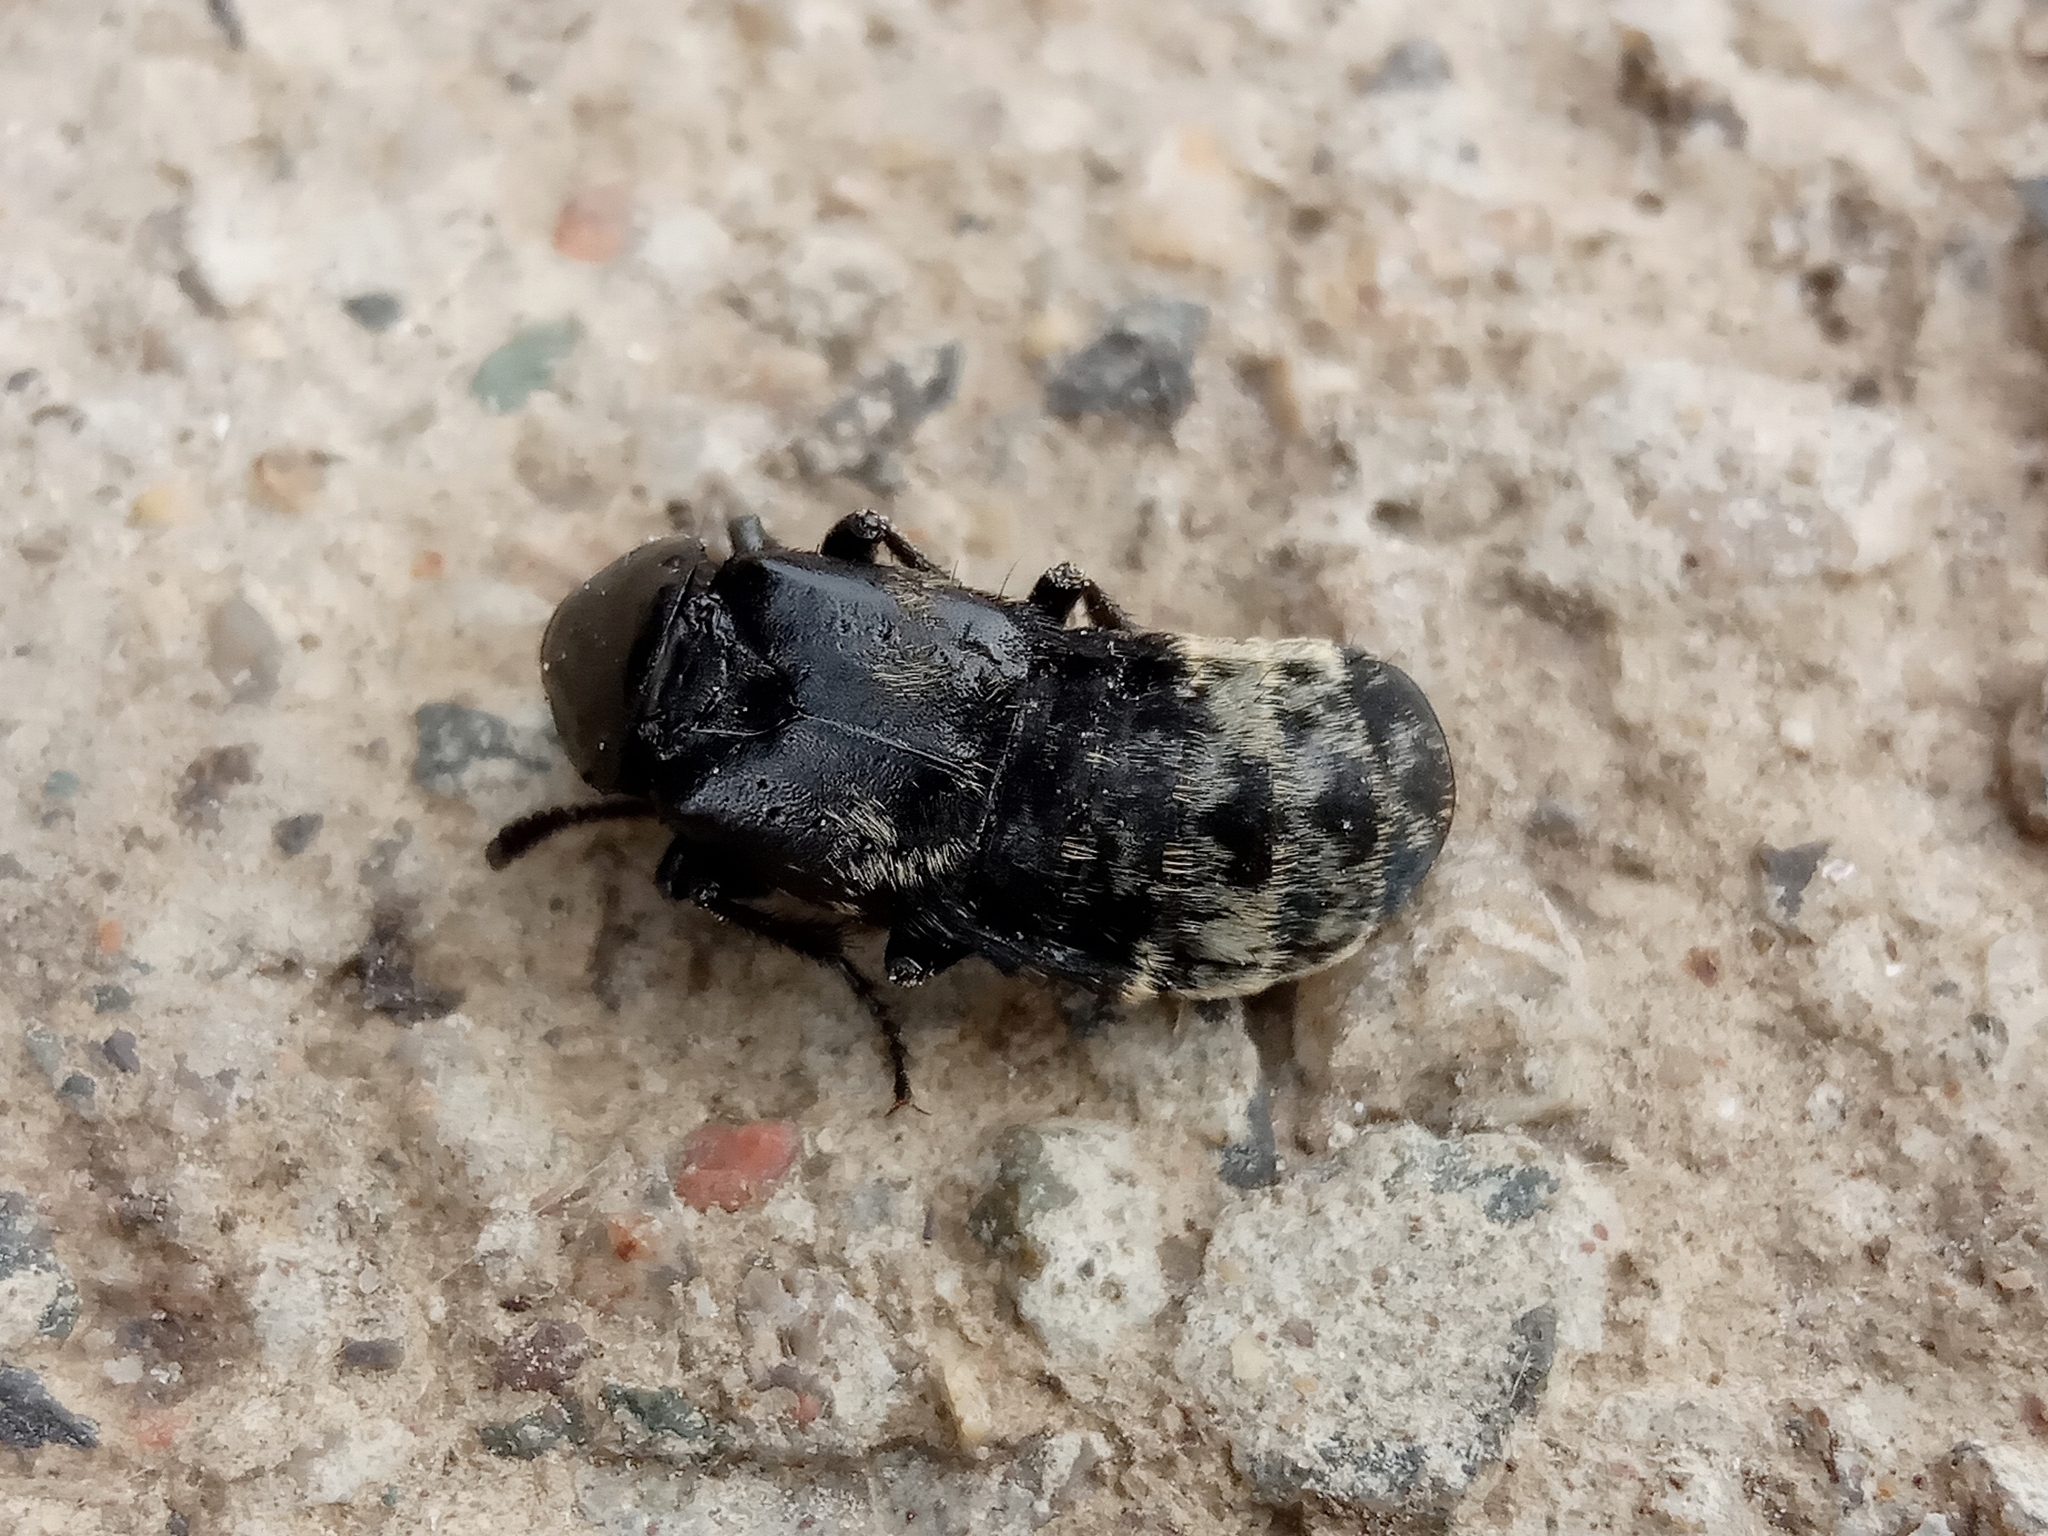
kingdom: Animalia
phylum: Arthropoda
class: Insecta
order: Coleoptera
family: Staphylinidae
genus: Creophilus
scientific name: Creophilus maxillosus
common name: Hairy rove beetle
